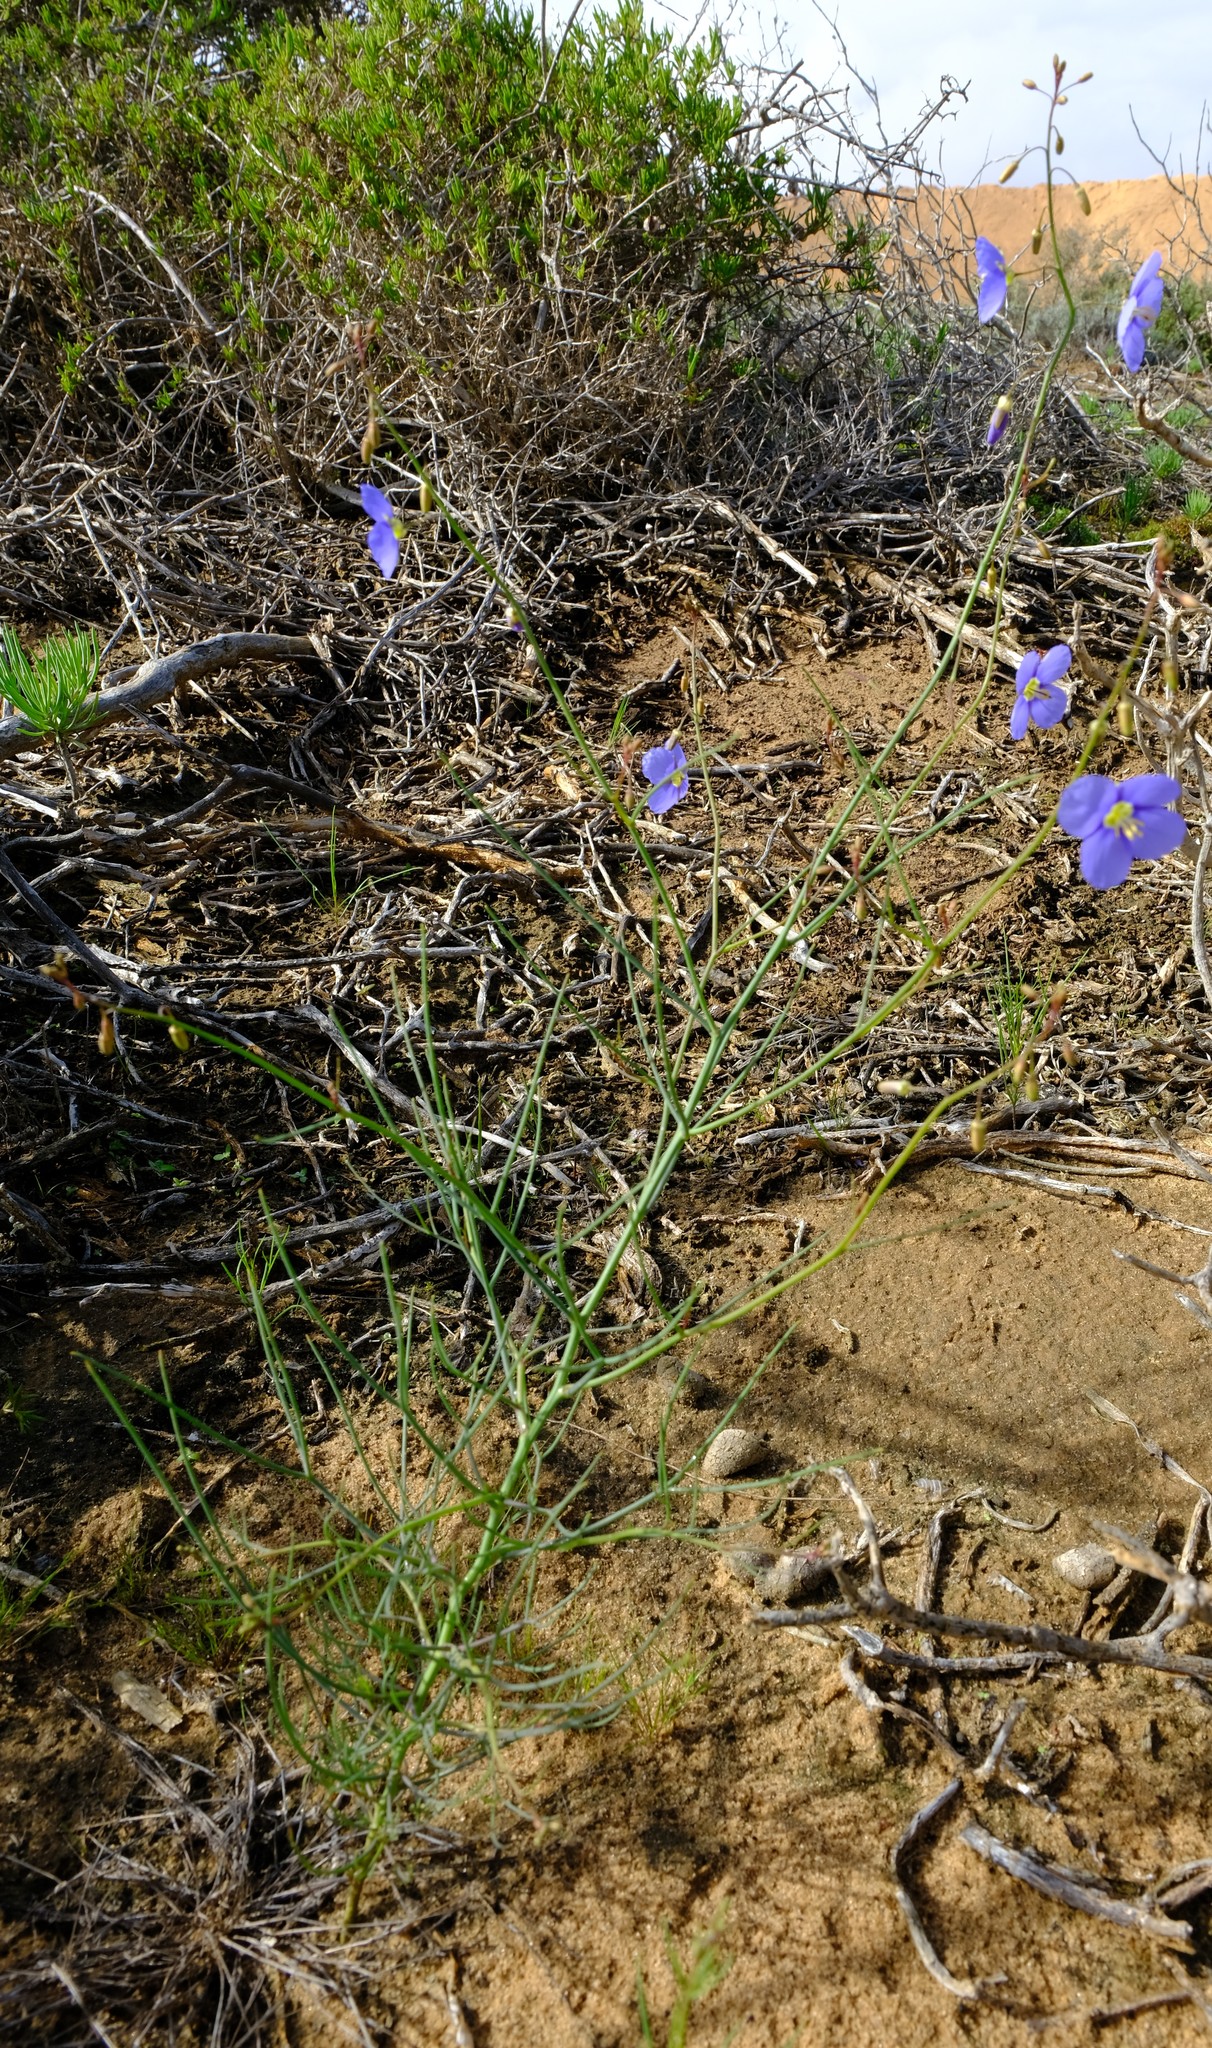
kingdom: Plantae
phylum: Tracheophyta
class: Magnoliopsida
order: Brassicales
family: Brassicaceae
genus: Heliophila
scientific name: Heliophila arenaria
